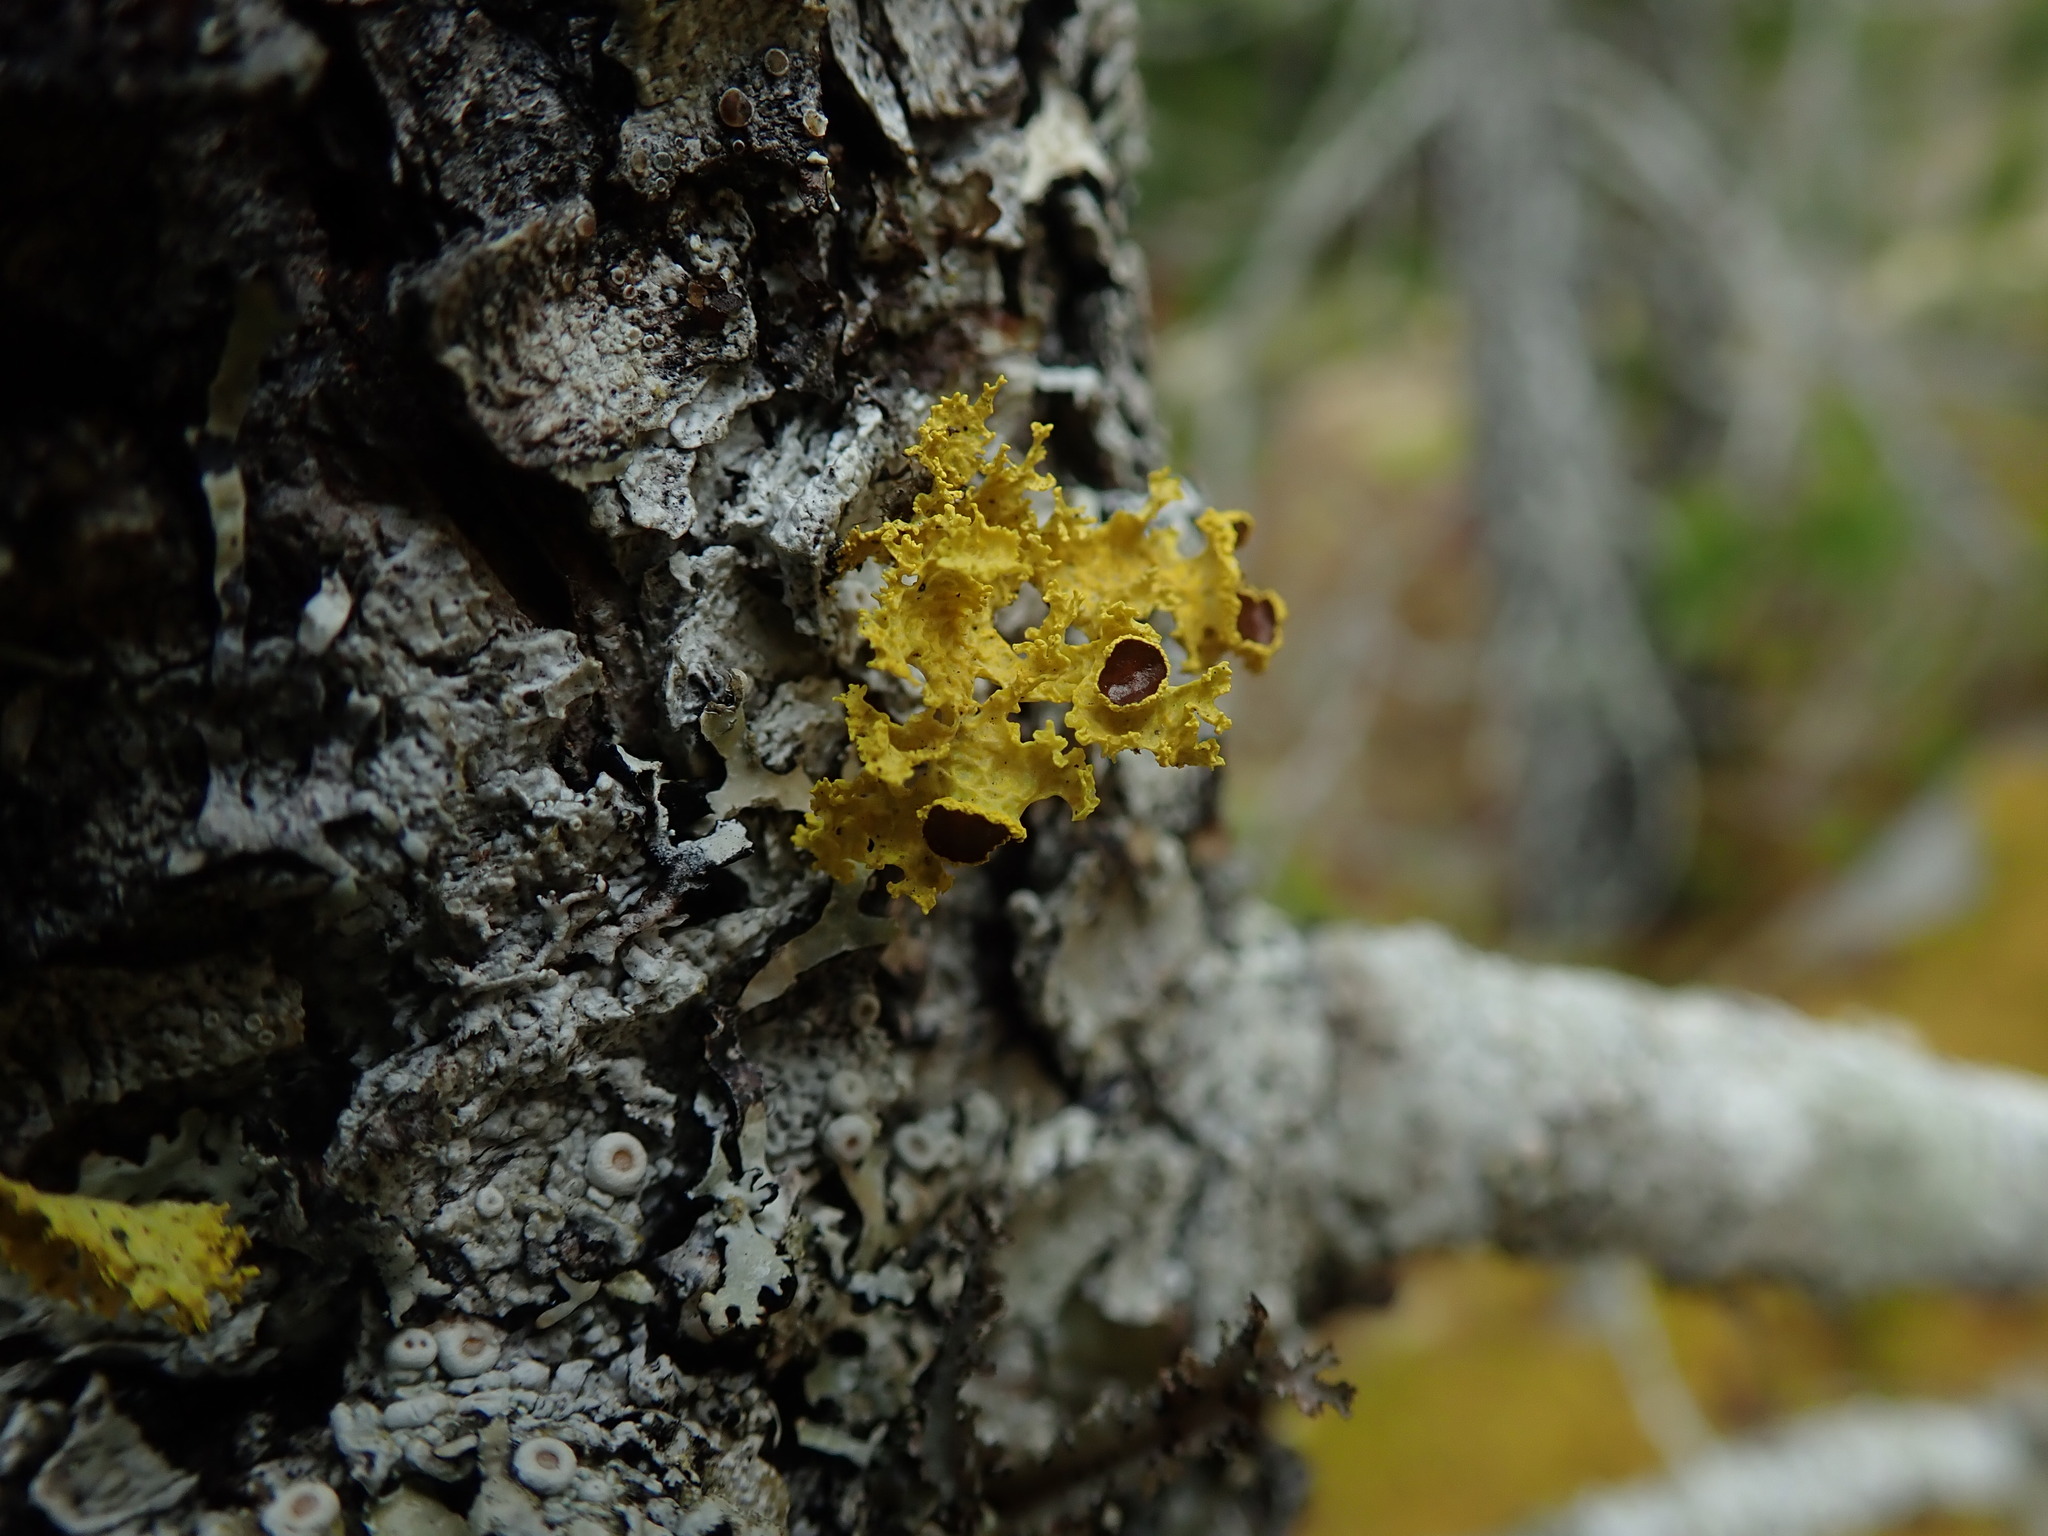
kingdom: Fungi
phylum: Ascomycota
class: Lecanoromycetes
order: Lecanorales
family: Parmeliaceae
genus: Vulpicida
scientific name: Vulpicida canadensis
